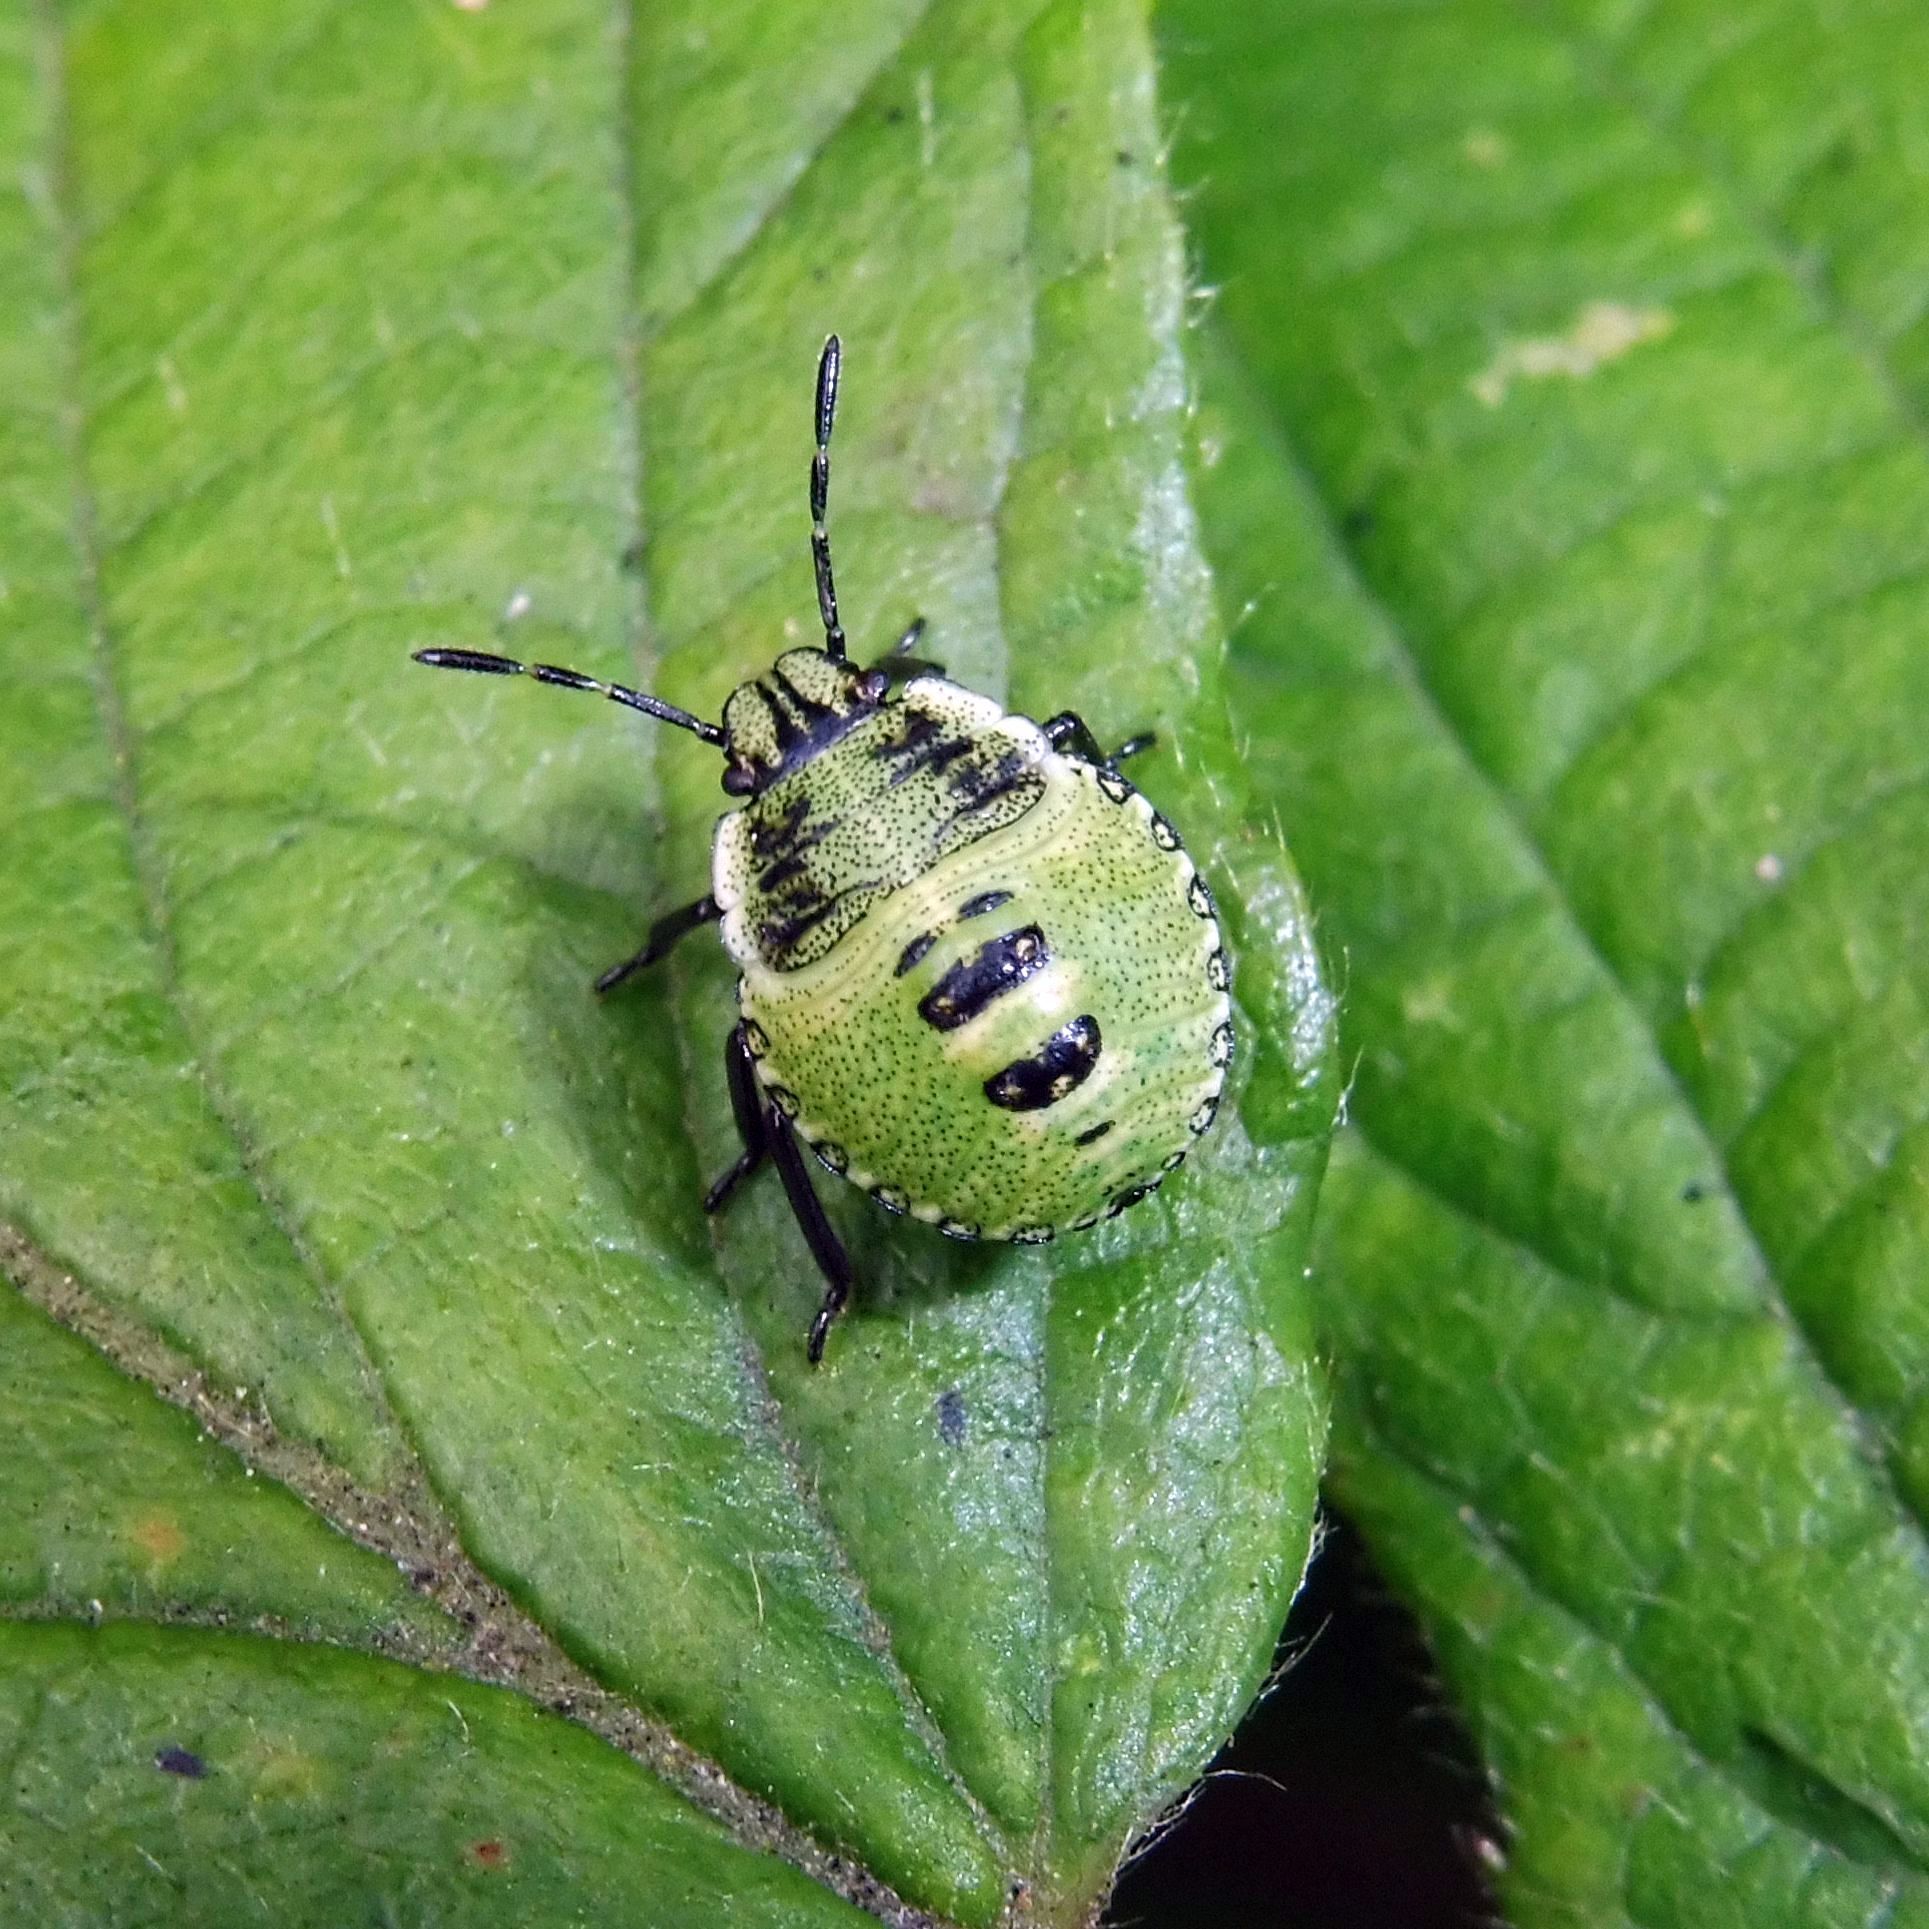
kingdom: Animalia
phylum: Arthropoda
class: Insecta
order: Hemiptera
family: Pentatomidae
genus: Palomena
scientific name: Palomena prasina
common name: Green shieldbug
